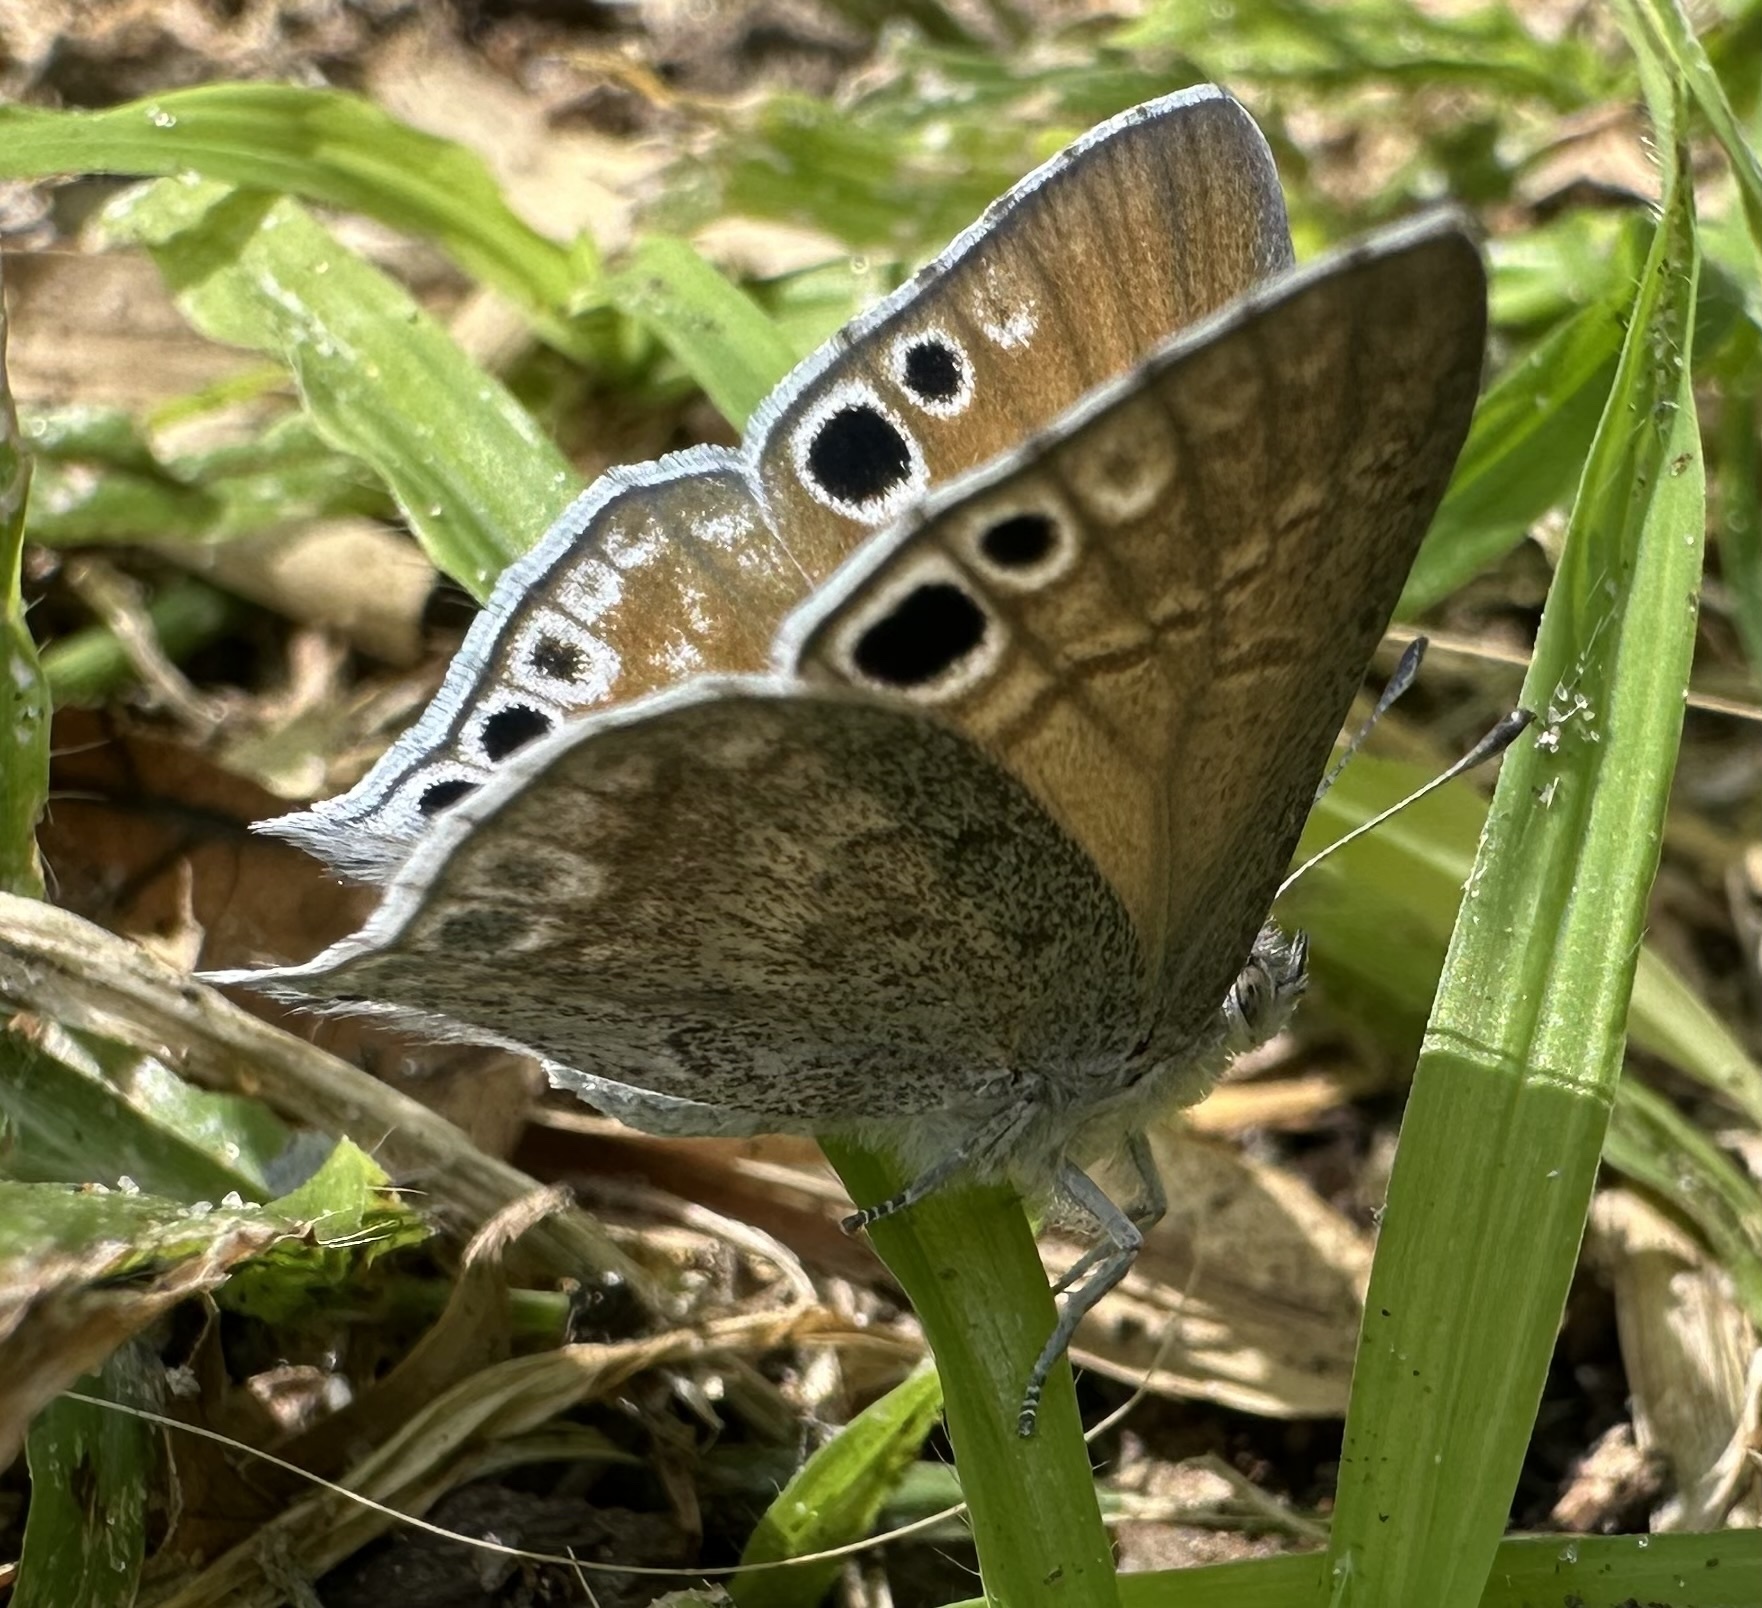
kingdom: Animalia
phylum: Arthropoda
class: Insecta
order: Lepidoptera
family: Lycaenidae
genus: Leptomyrina
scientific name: Leptomyrina henningi
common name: Henning's black-eye
